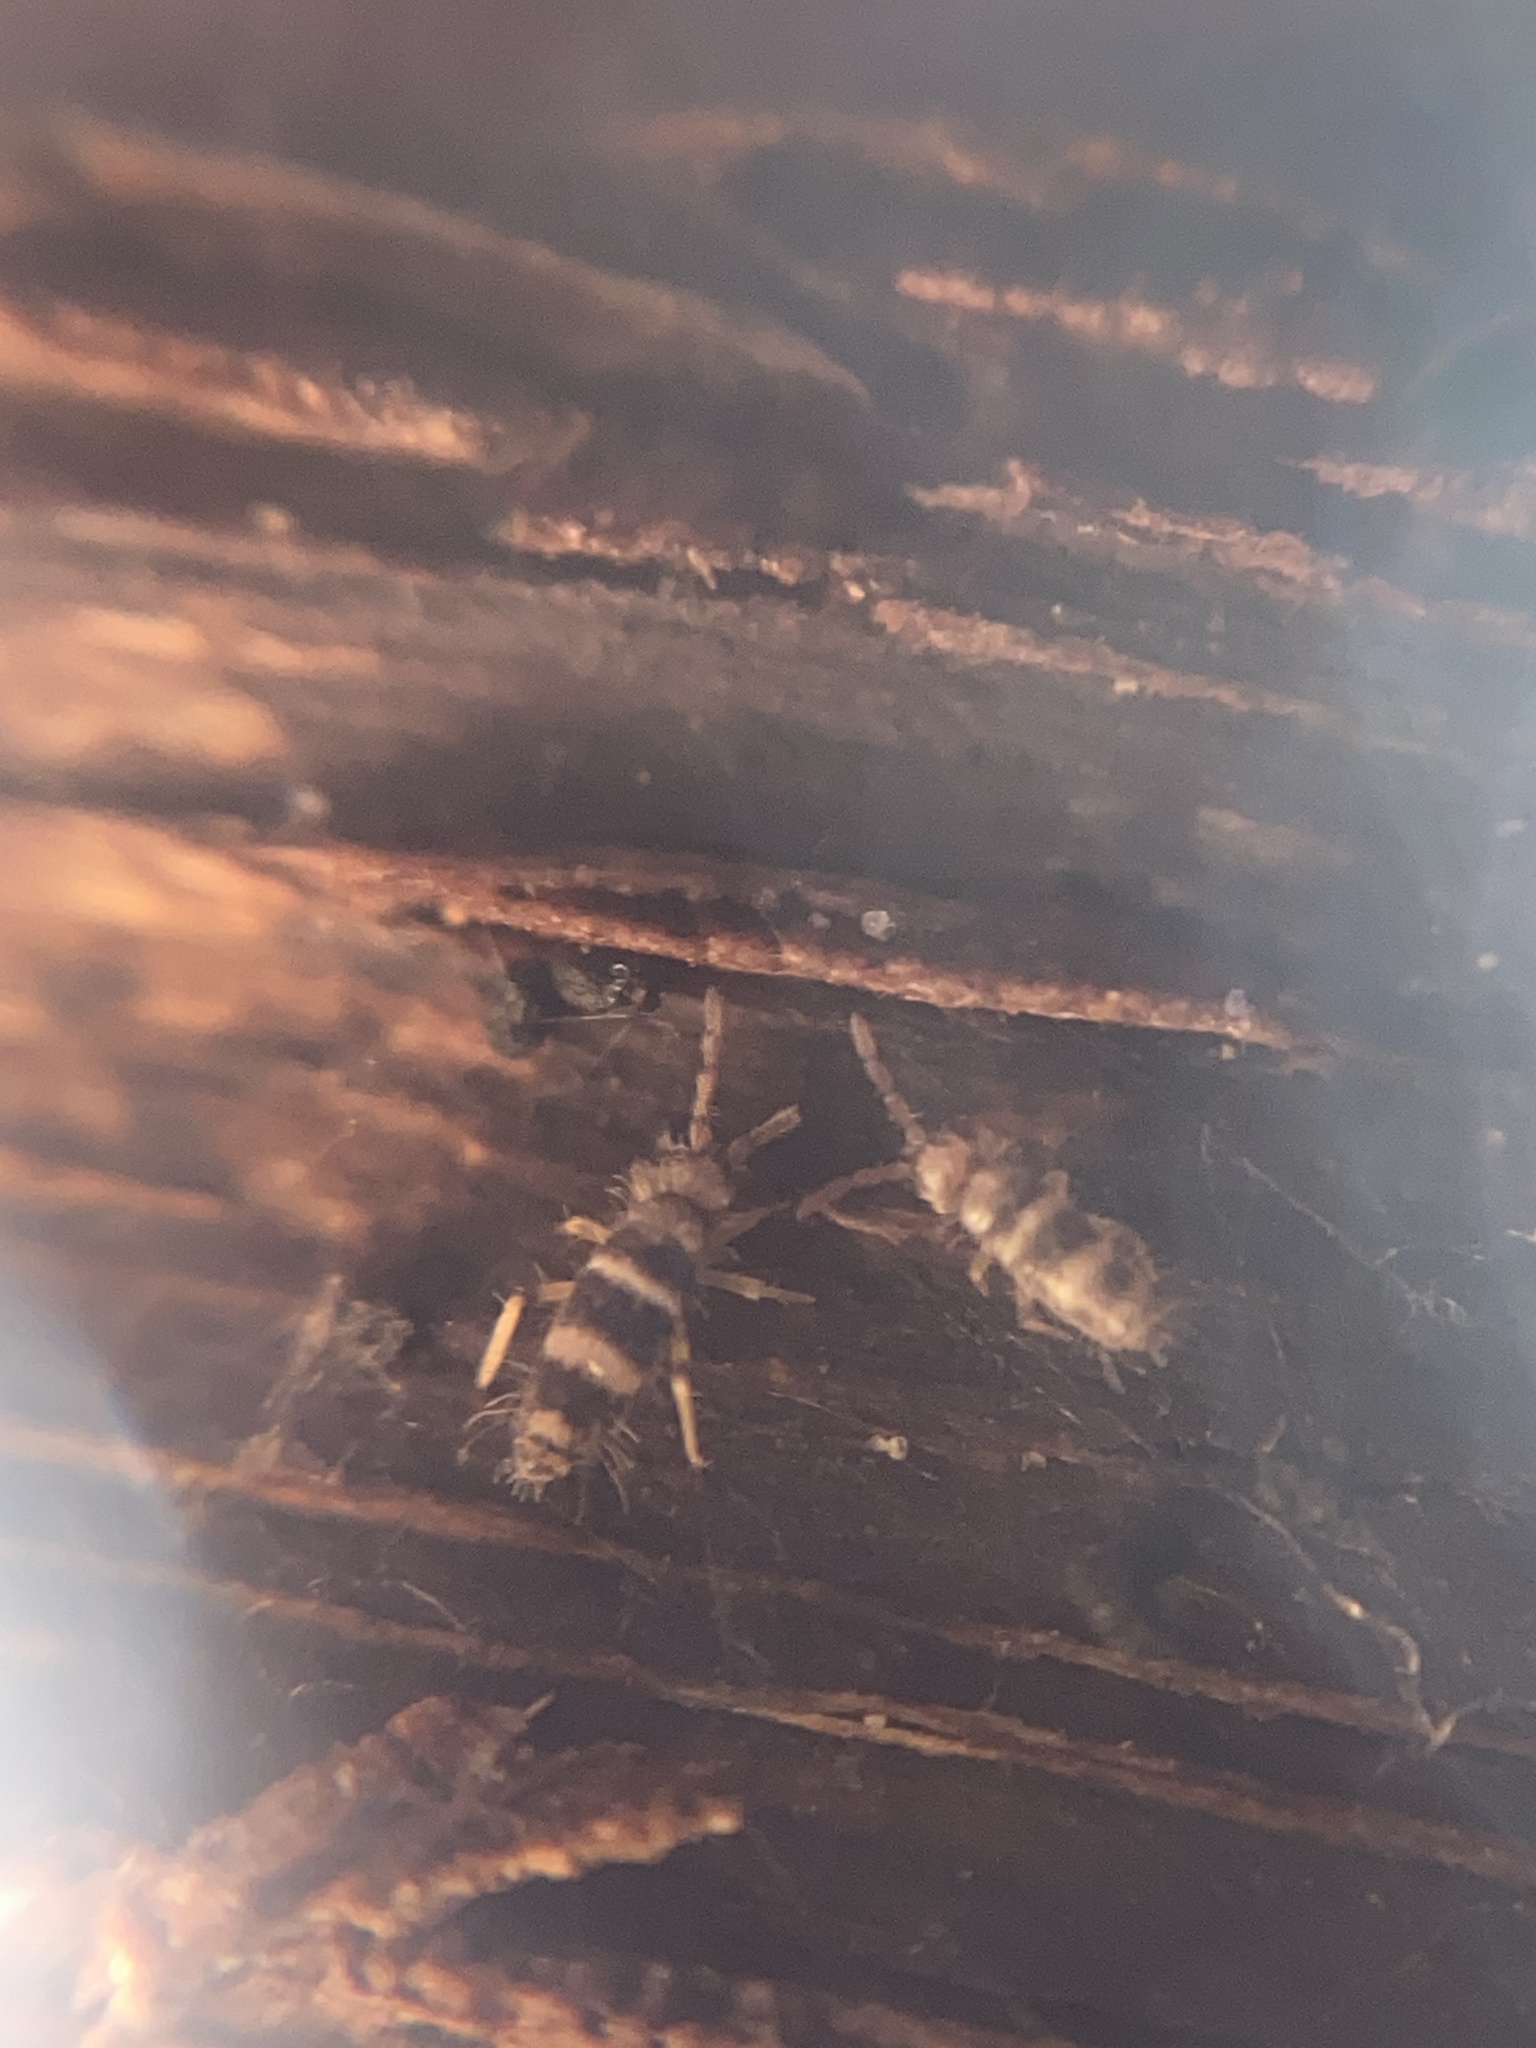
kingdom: Animalia
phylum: Arthropoda
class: Collembola
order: Entomobryomorpha
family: Entomobryidae
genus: Willowsia
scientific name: Willowsia platani
